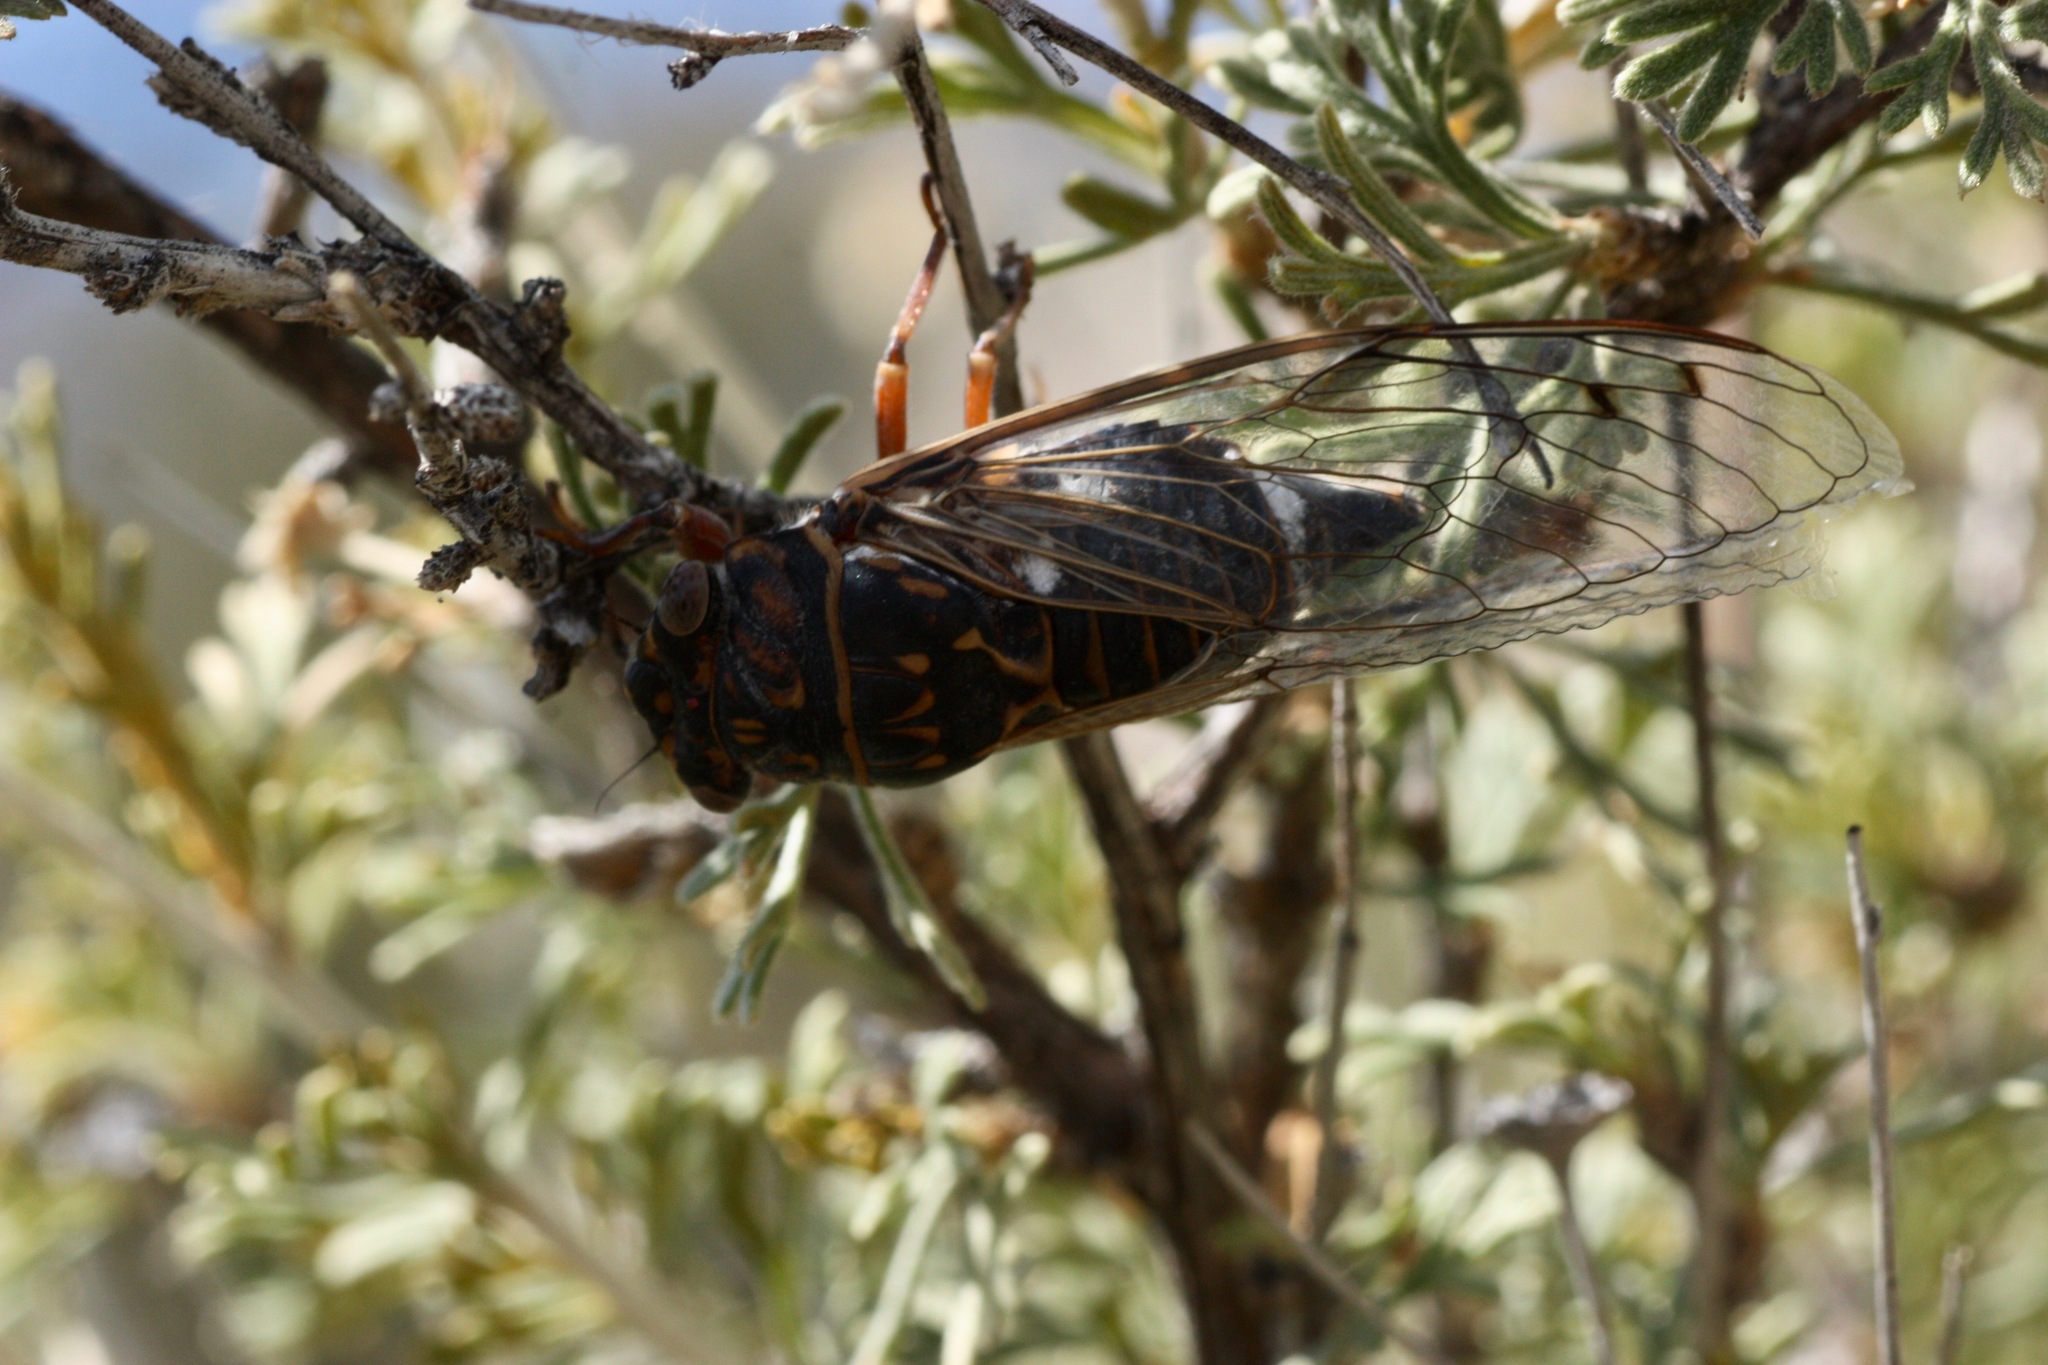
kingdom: Animalia
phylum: Arthropoda
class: Insecta
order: Hemiptera
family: Cicadidae
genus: Hadoa
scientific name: Hadoa inaudita
